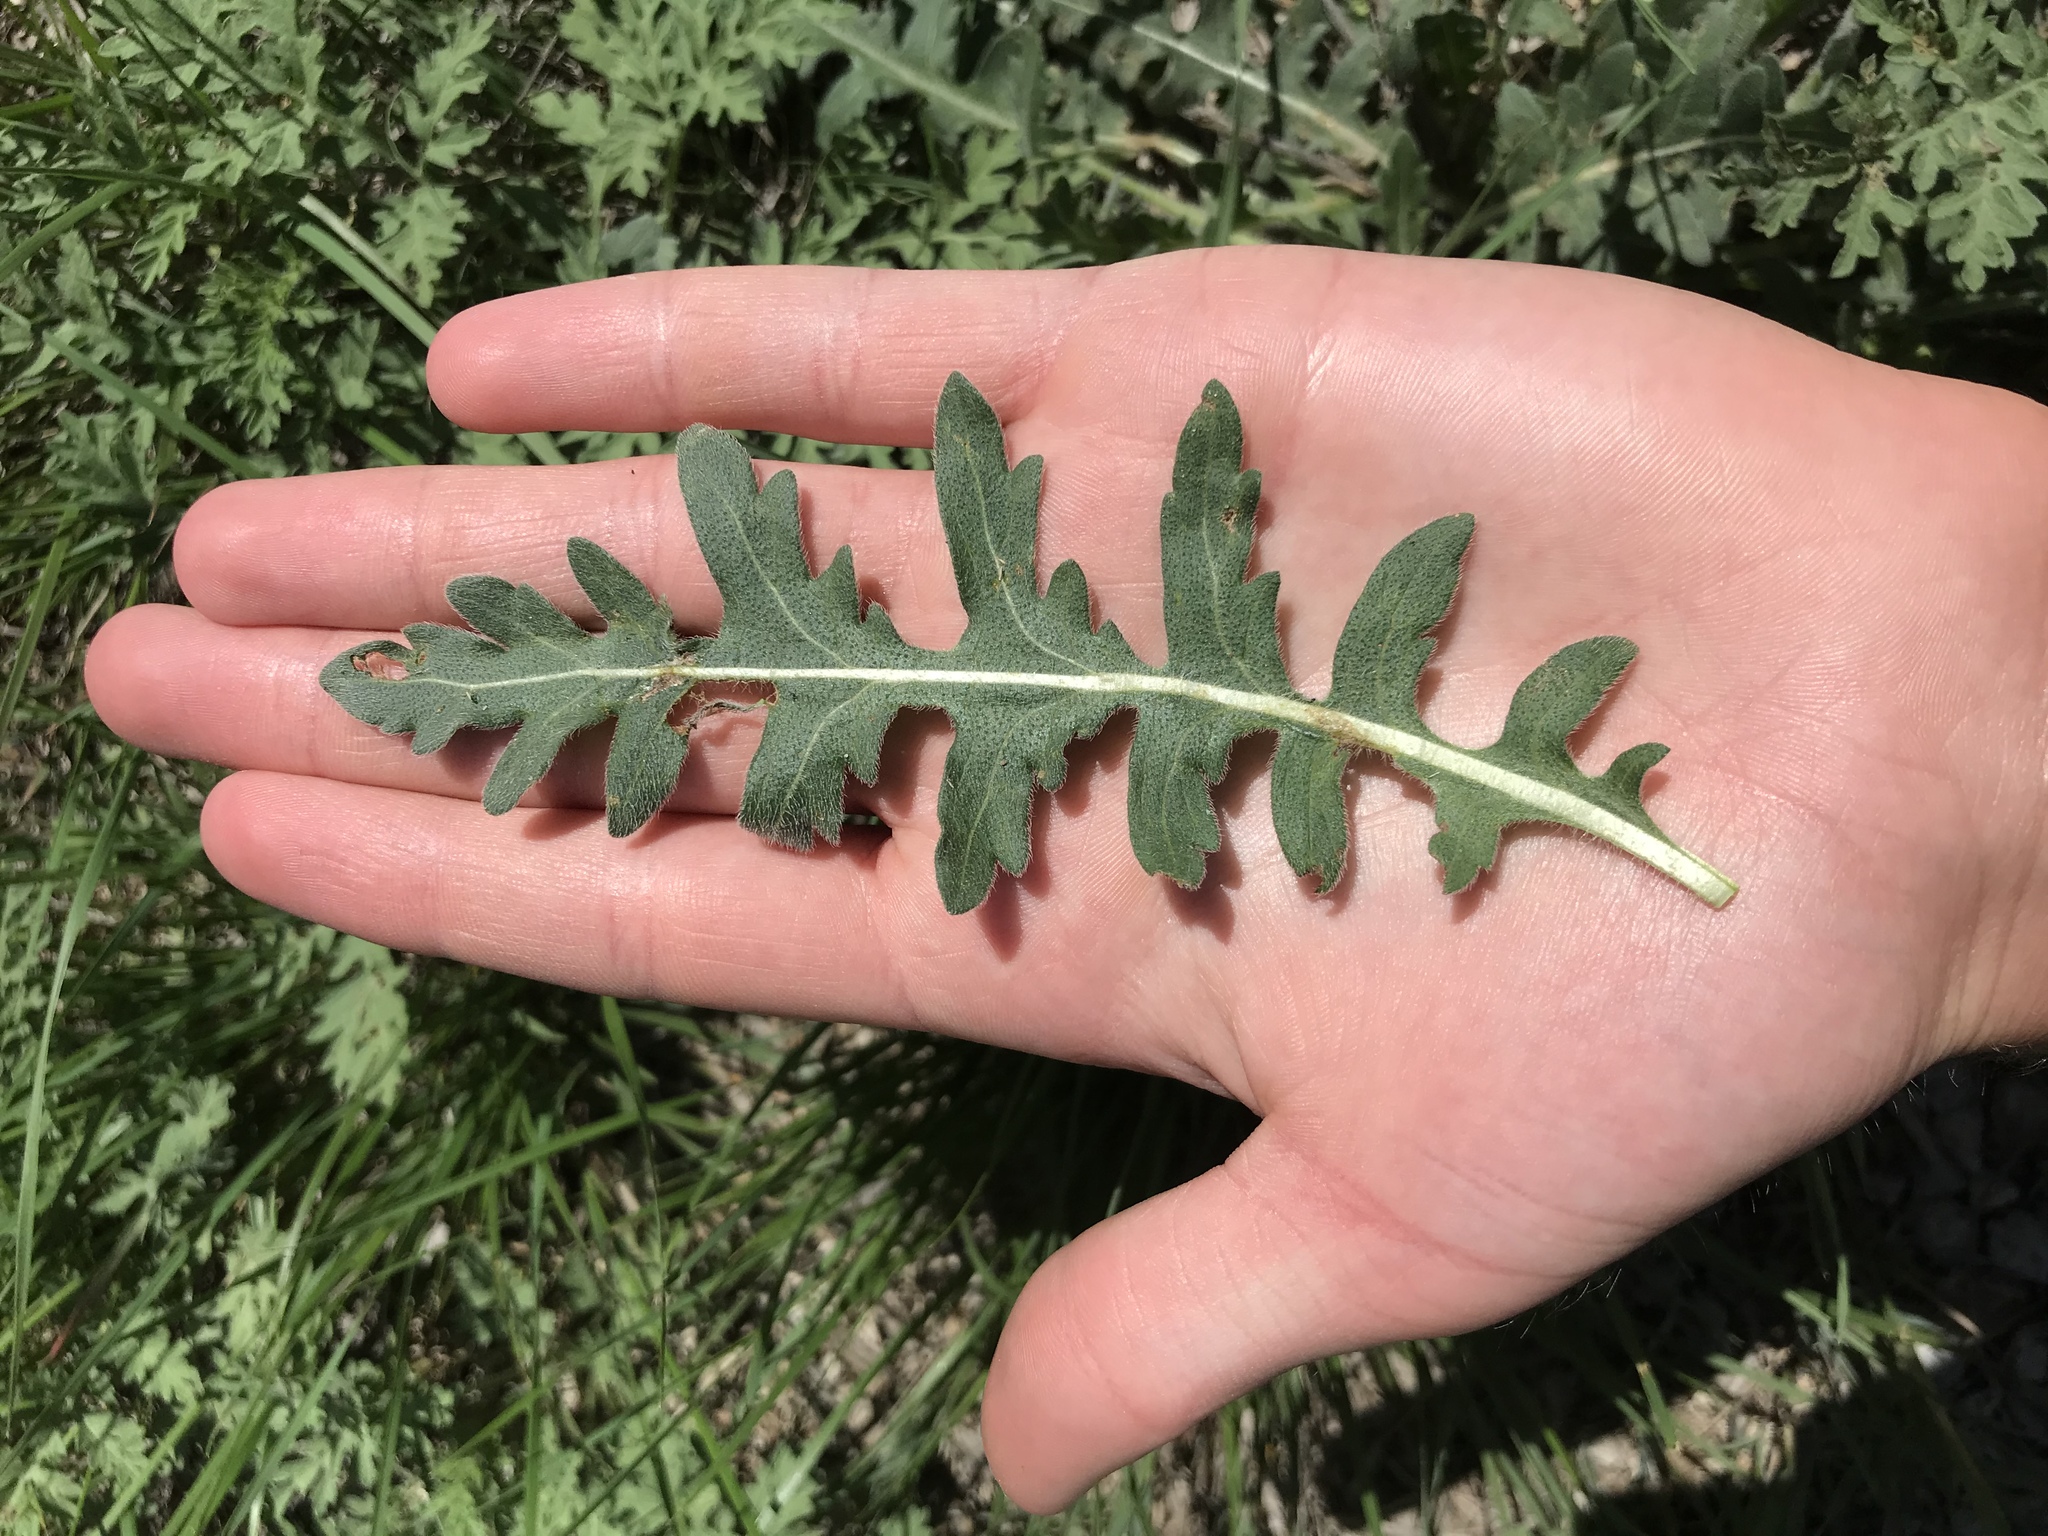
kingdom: Plantae
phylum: Tracheophyta
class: Magnoliopsida
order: Asterales
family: Asteraceae
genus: Engelmannia
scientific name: Engelmannia peristenia
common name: Engelmann's daisy
